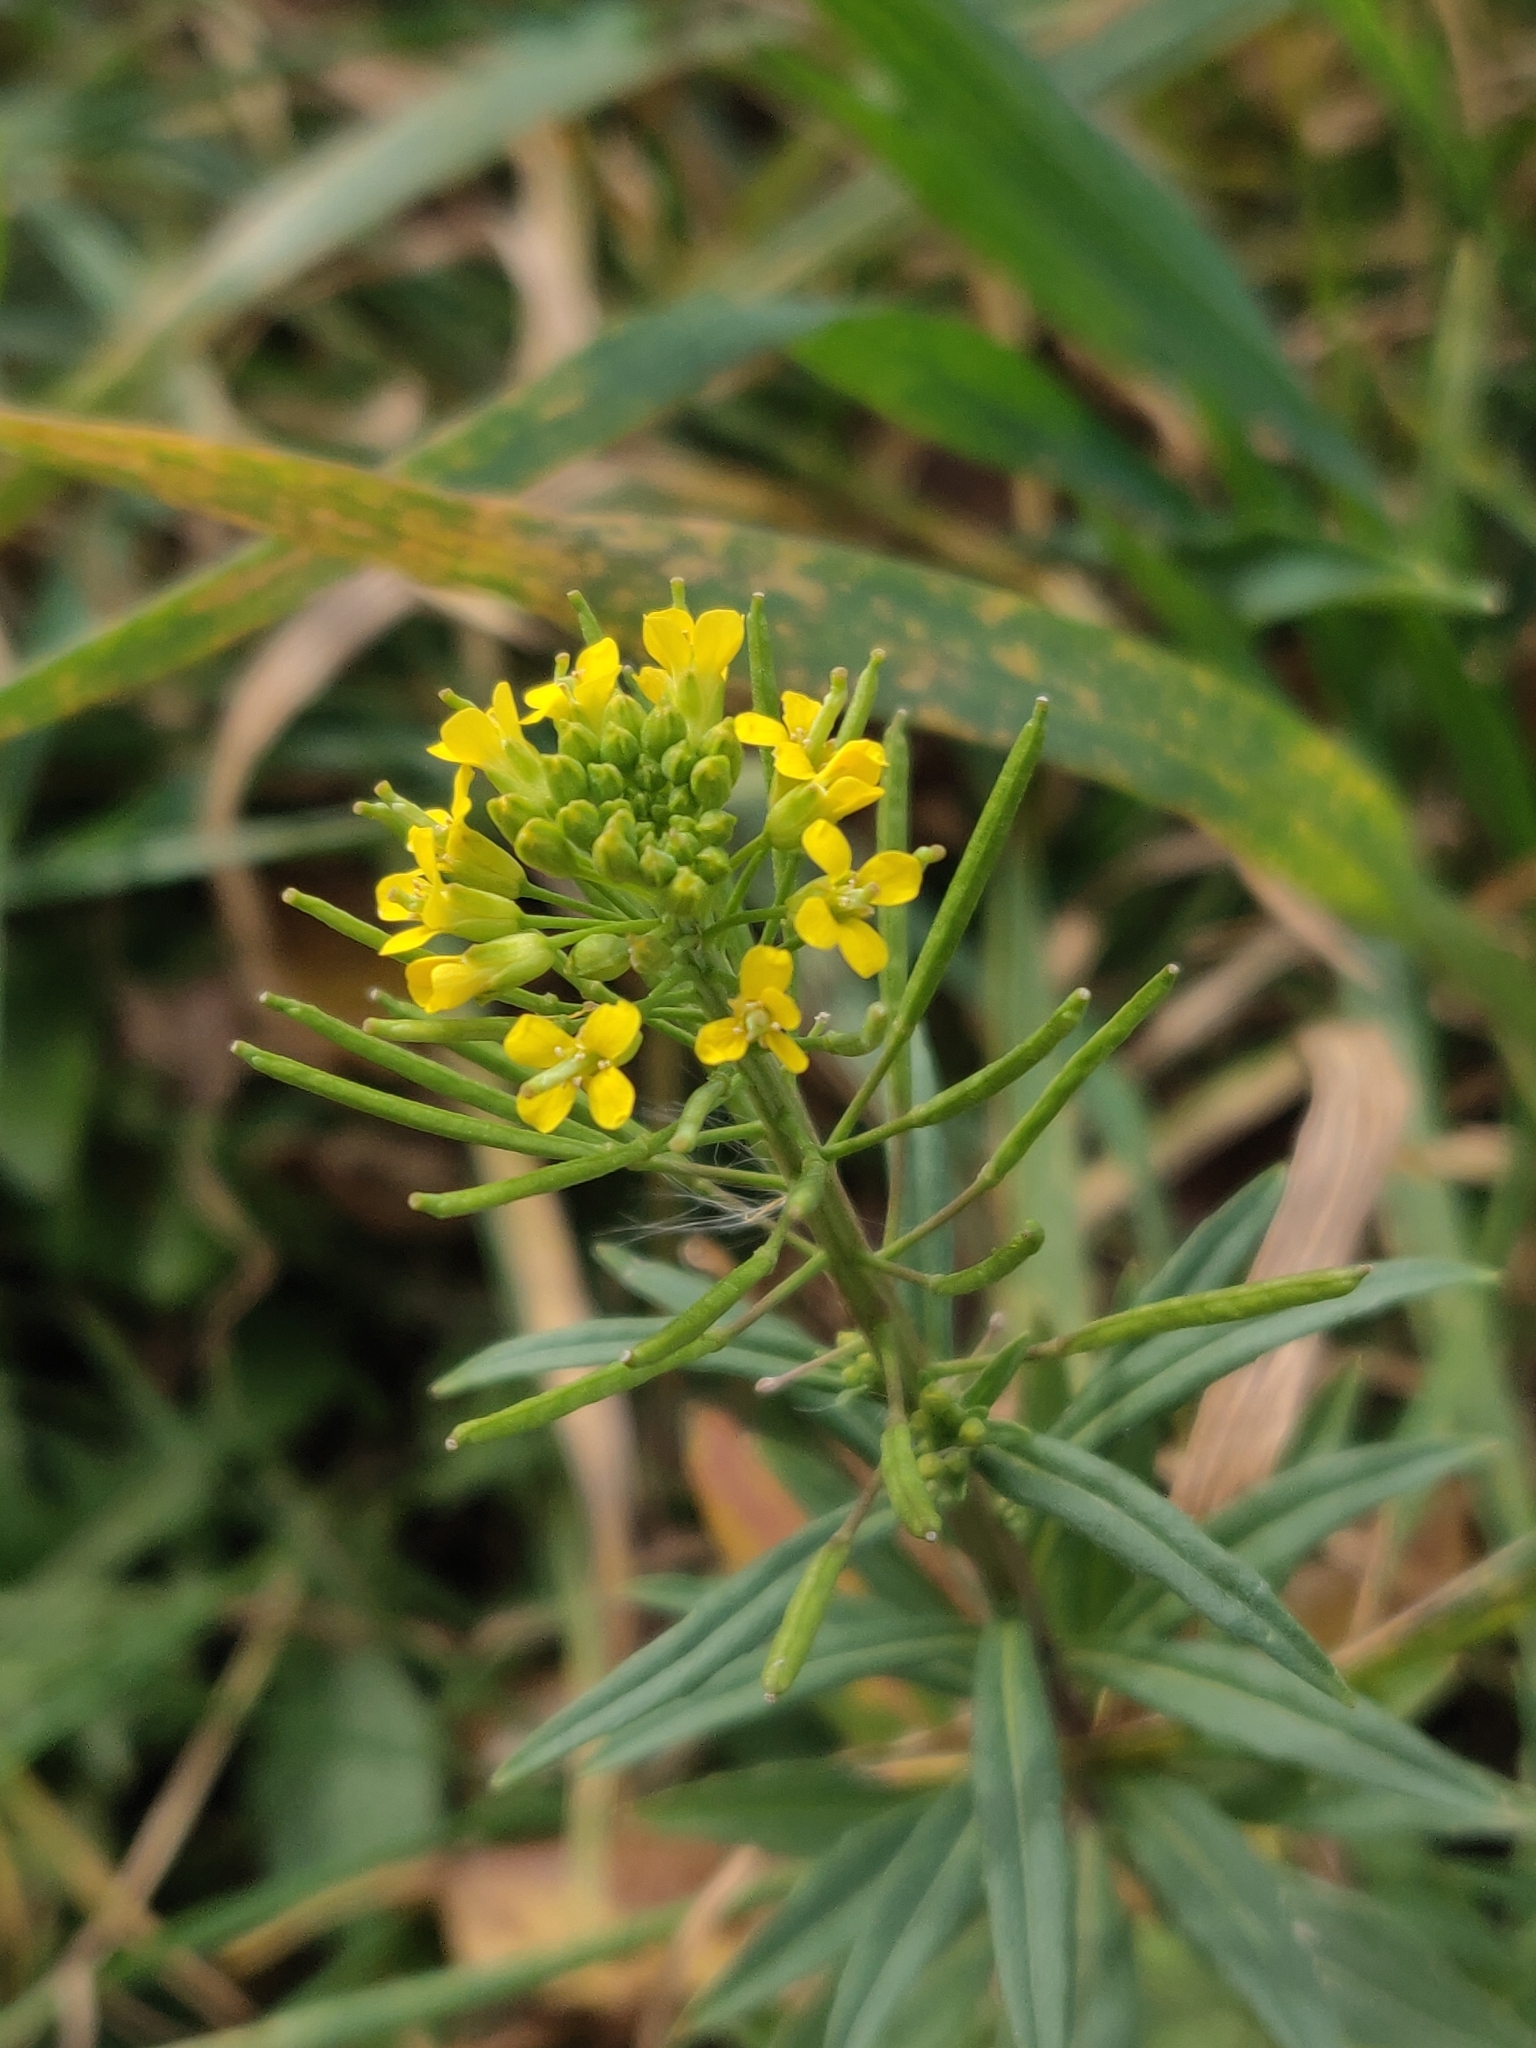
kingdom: Plantae
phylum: Tracheophyta
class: Magnoliopsida
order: Brassicales
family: Brassicaceae
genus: Erysimum
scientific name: Erysimum cheiranthoides
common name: Treacle mustard
